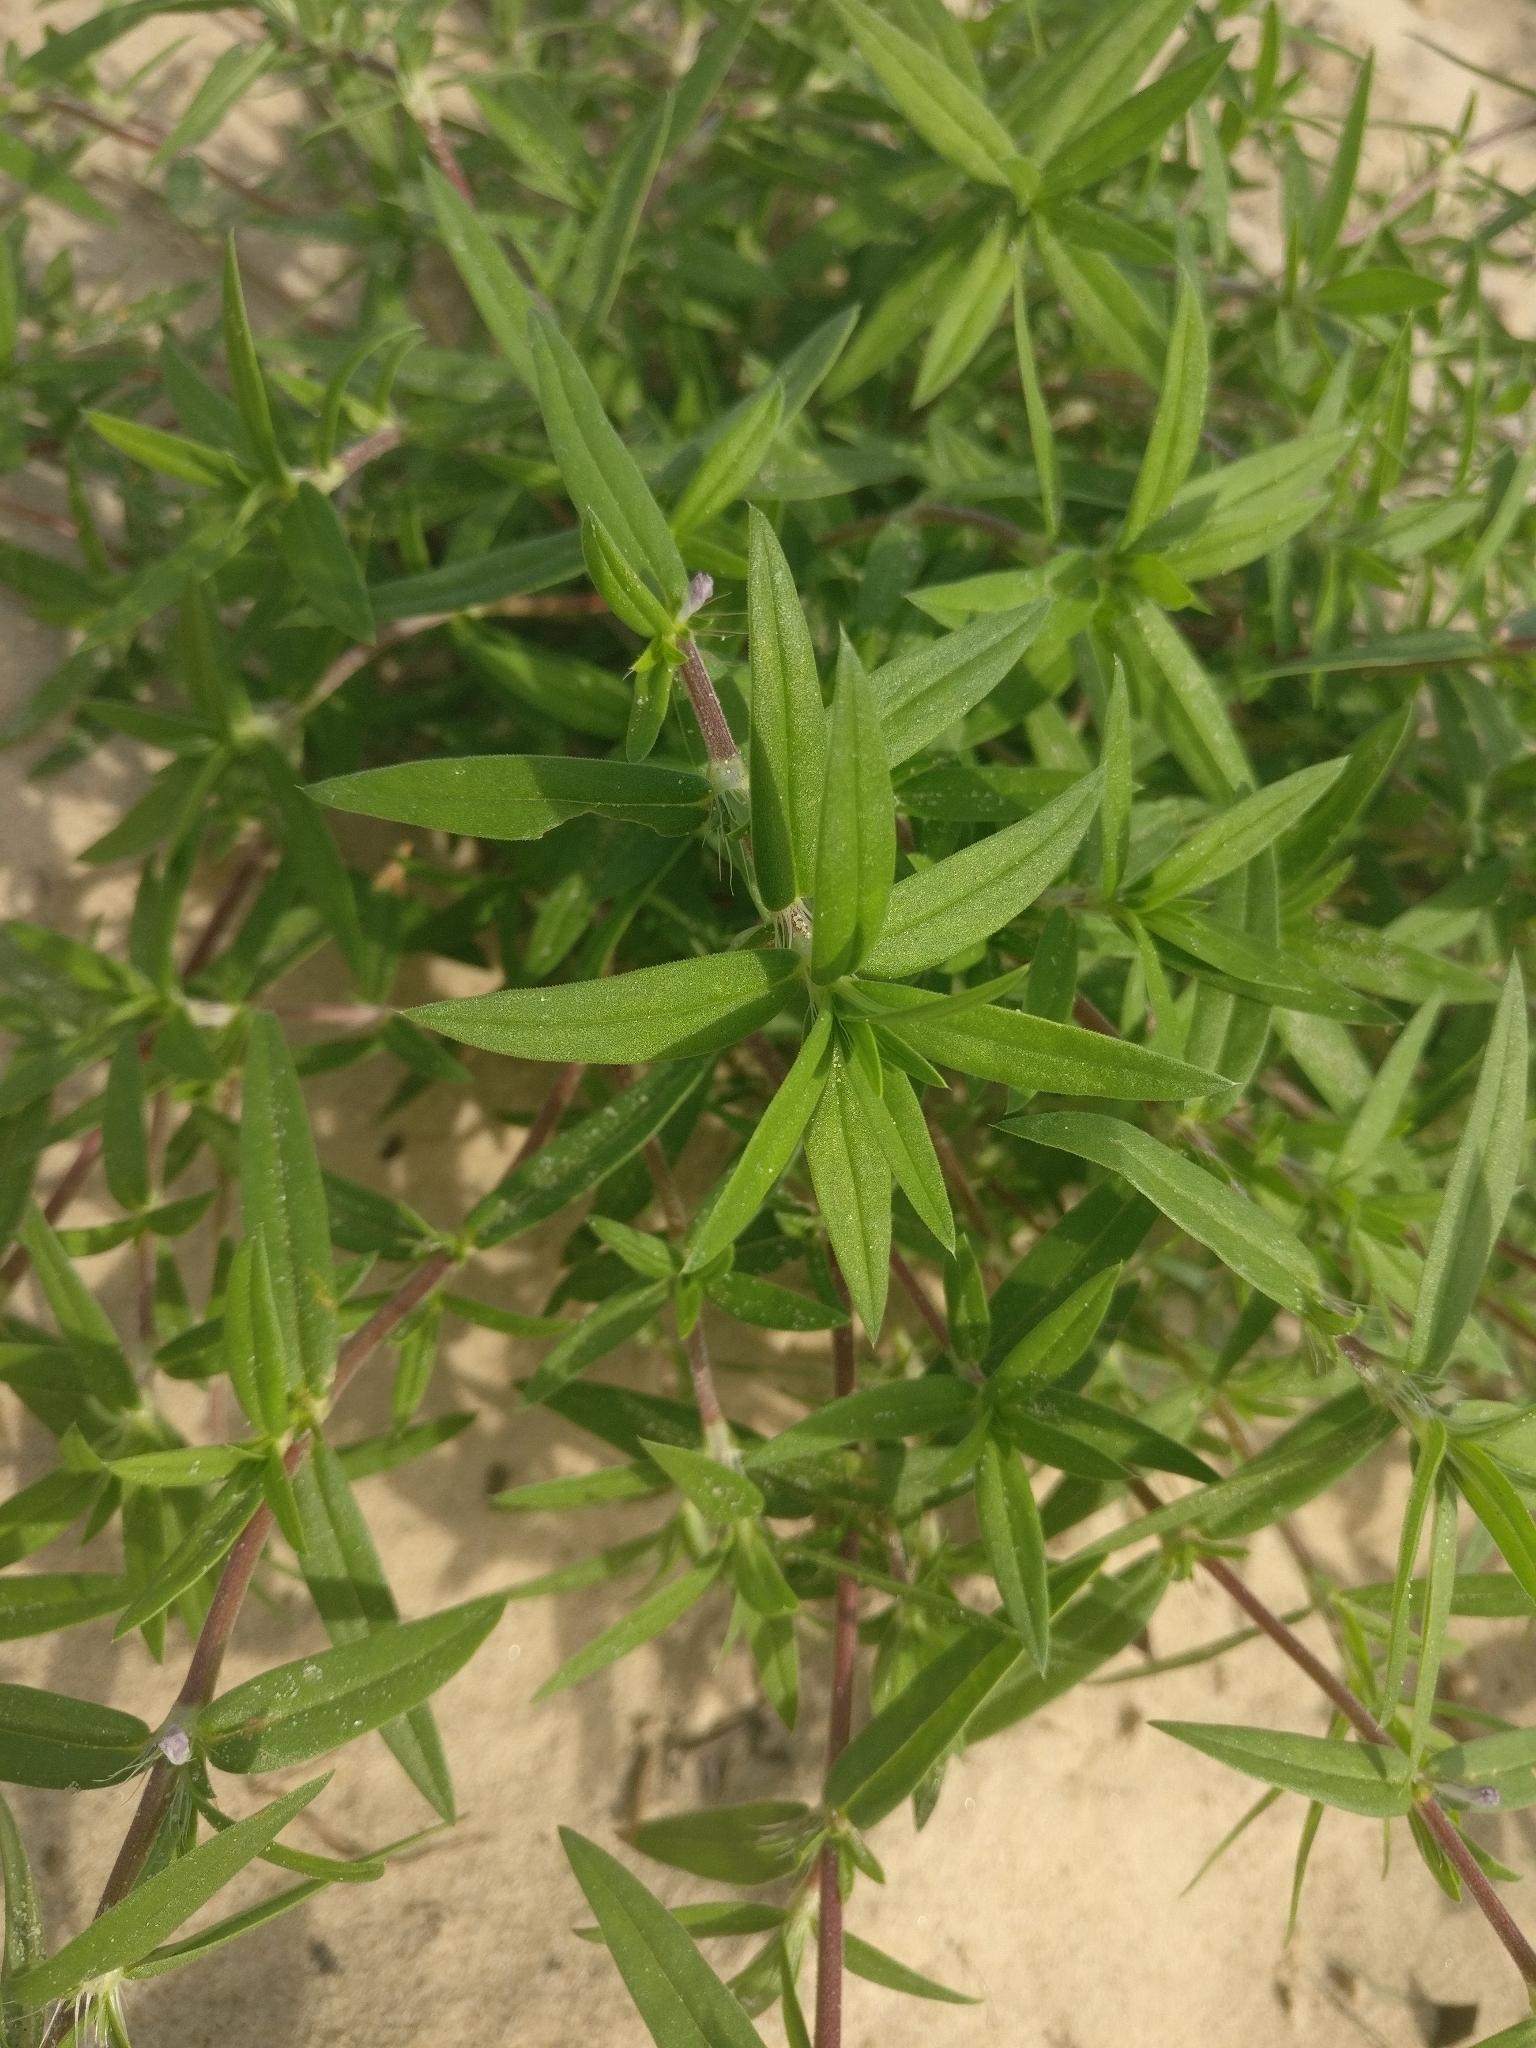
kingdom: Plantae
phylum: Tracheophyta
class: Magnoliopsida
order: Gentianales
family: Rubiaceae
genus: Hexasepalum
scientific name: Hexasepalum teres
